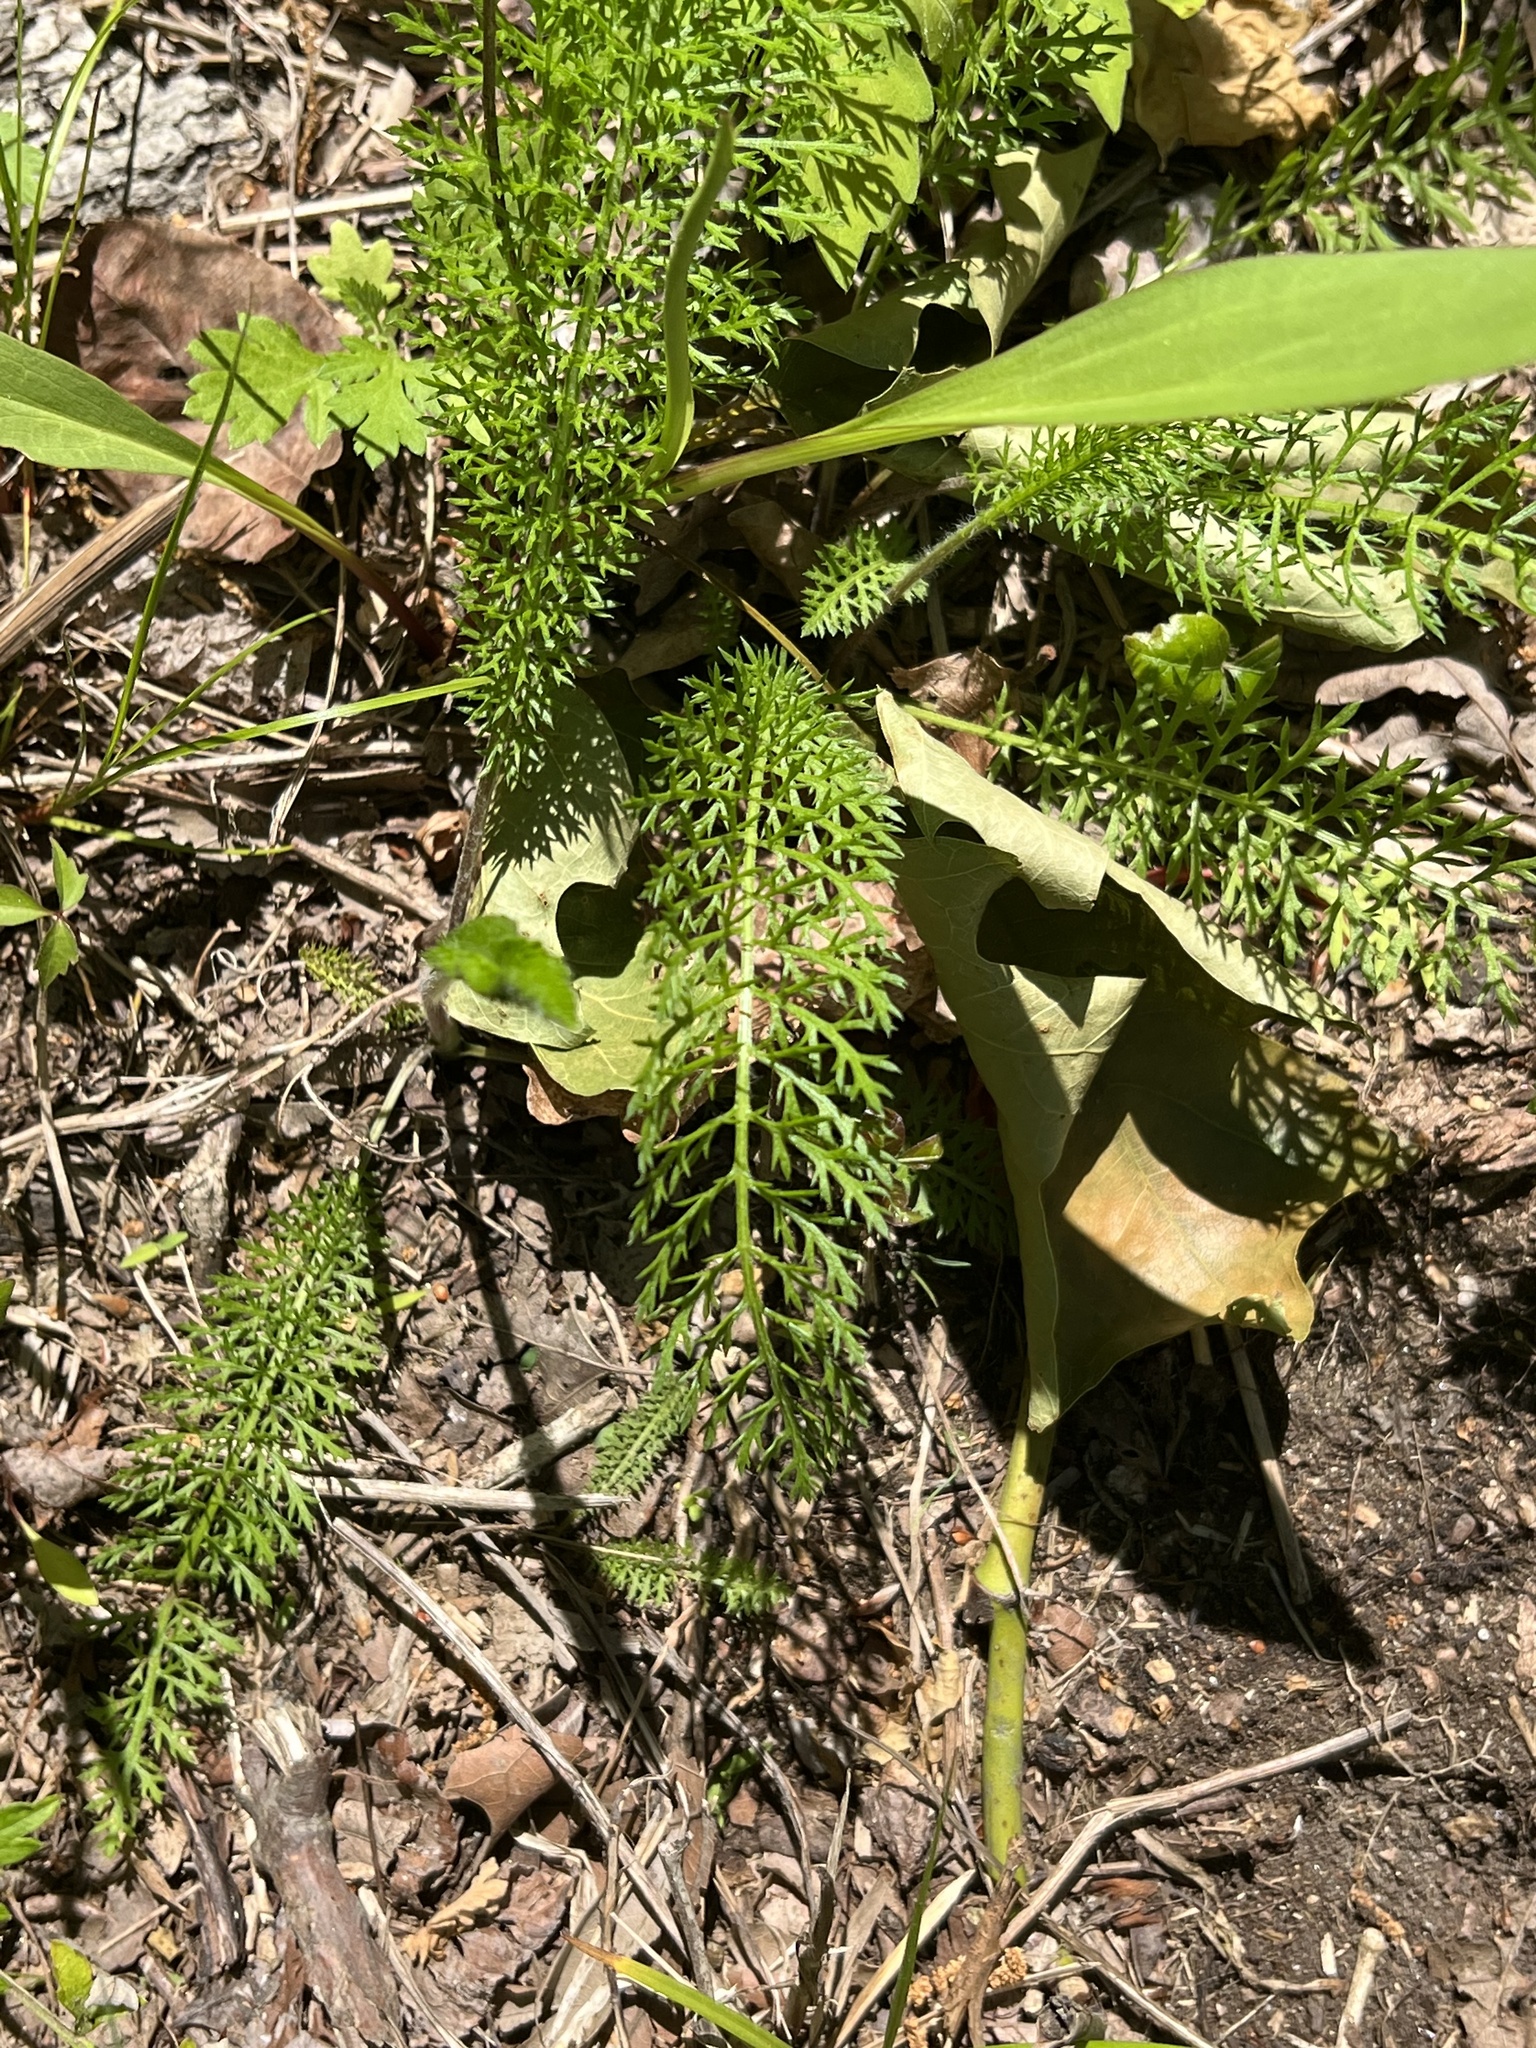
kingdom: Plantae
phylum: Tracheophyta
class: Magnoliopsida
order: Asterales
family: Asteraceae
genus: Achillea
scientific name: Achillea millefolium
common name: Yarrow
